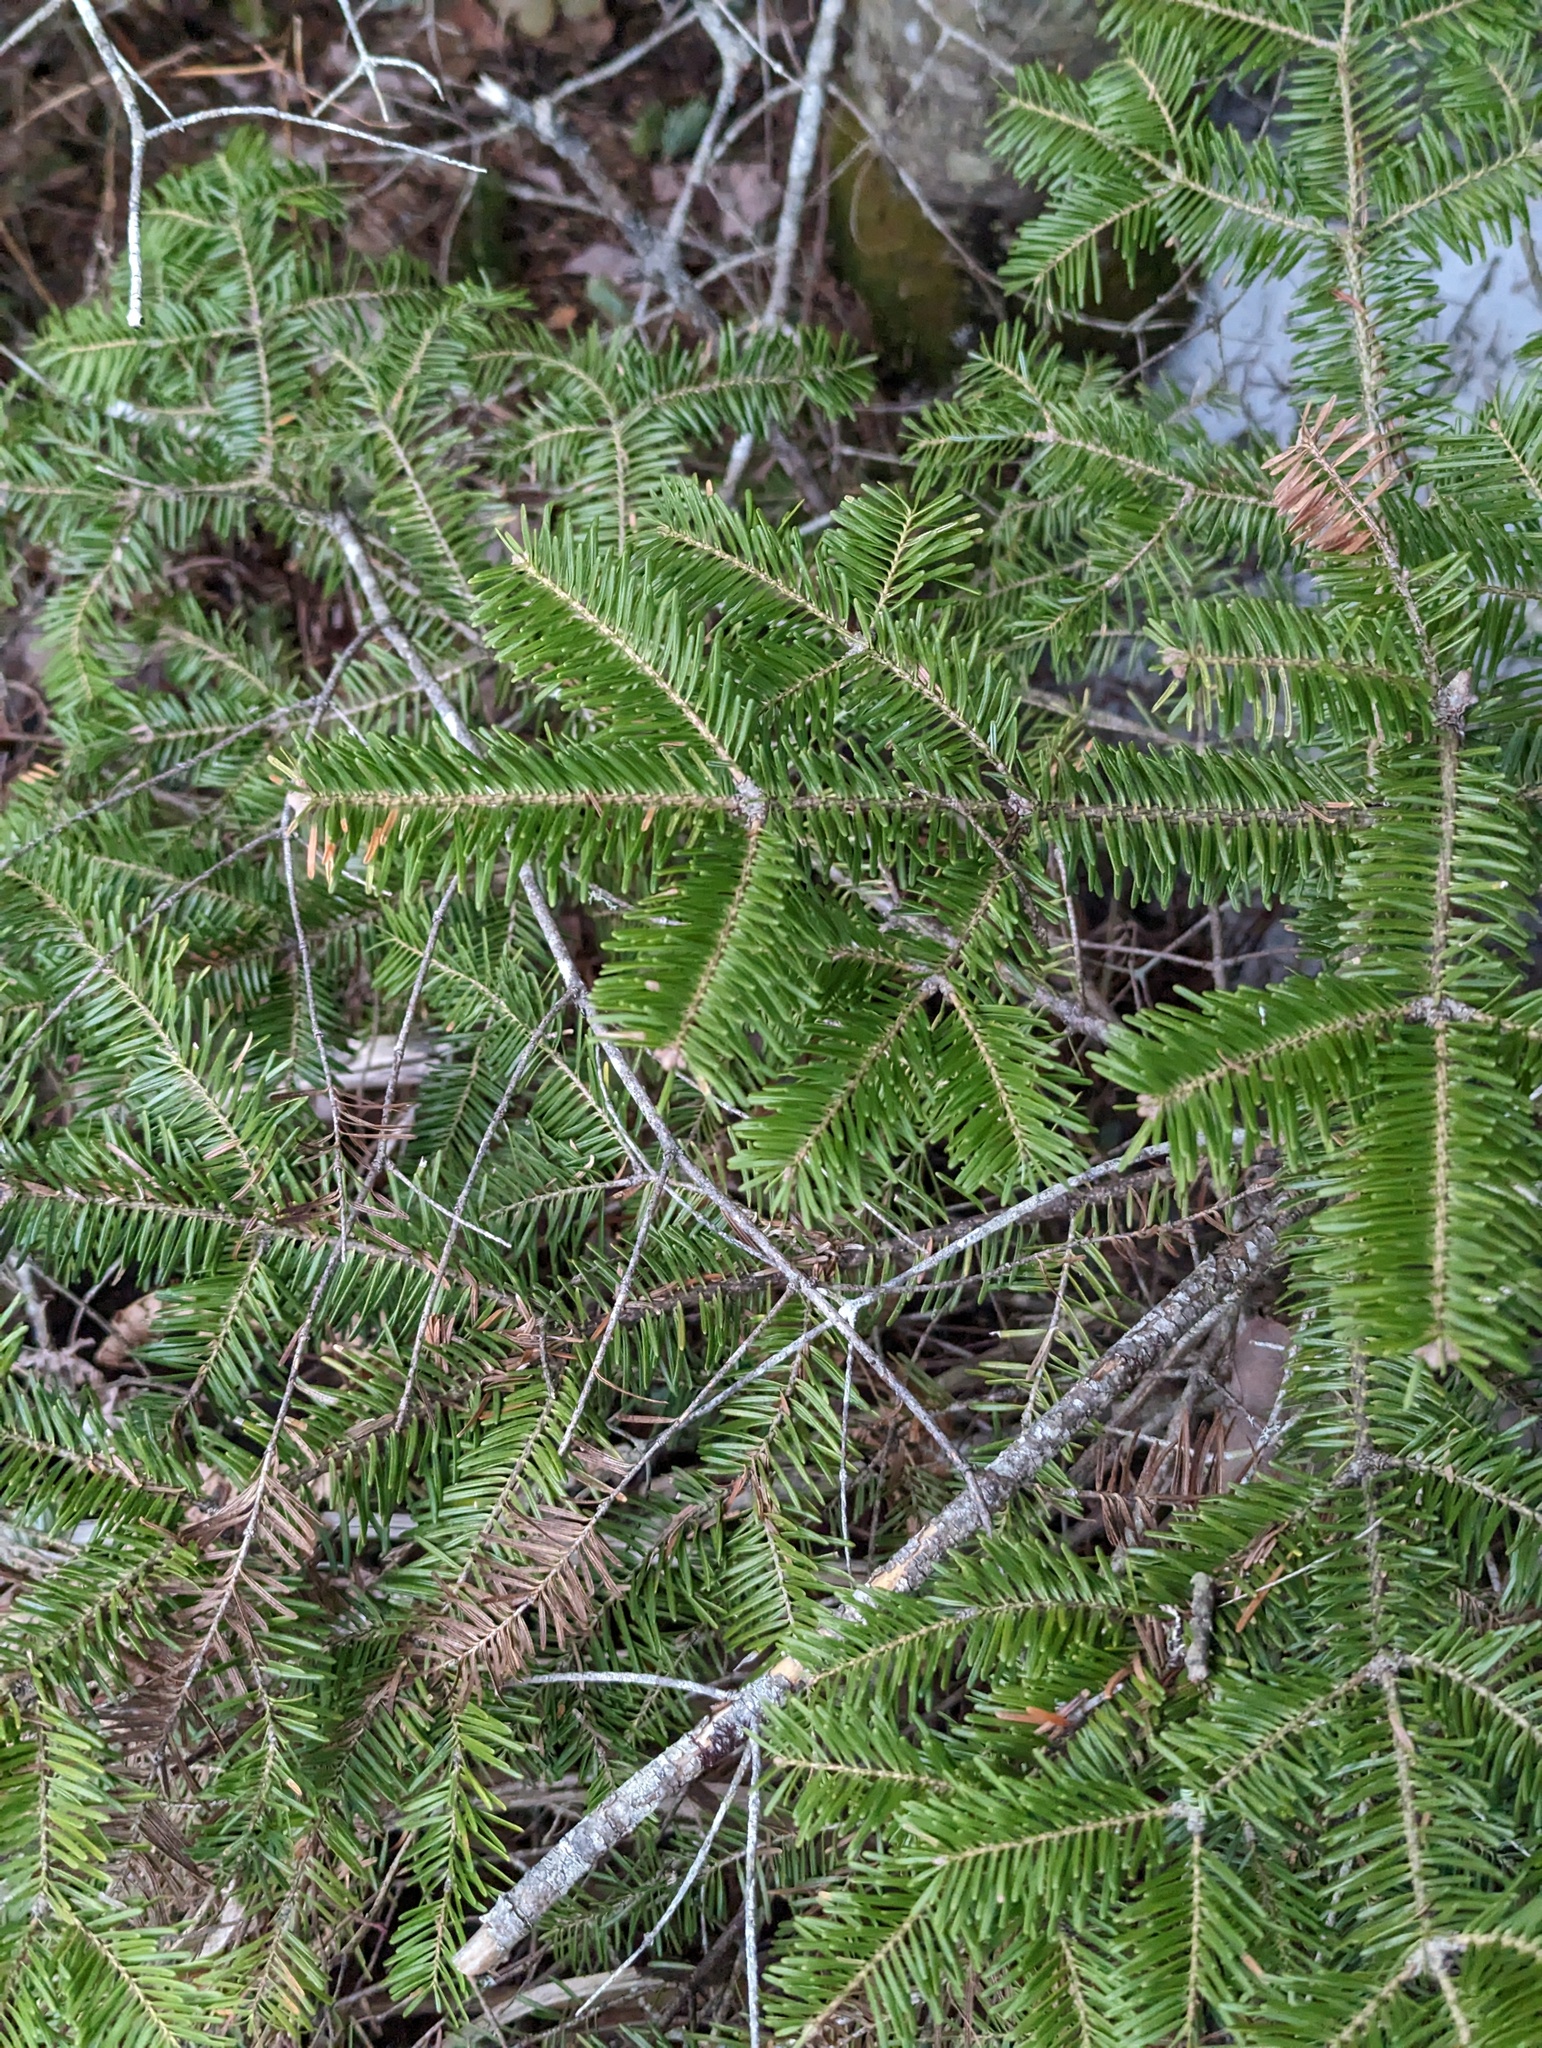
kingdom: Plantae
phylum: Tracheophyta
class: Pinopsida
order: Pinales
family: Pinaceae
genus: Abies
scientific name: Abies balsamea
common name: Balsam fir
